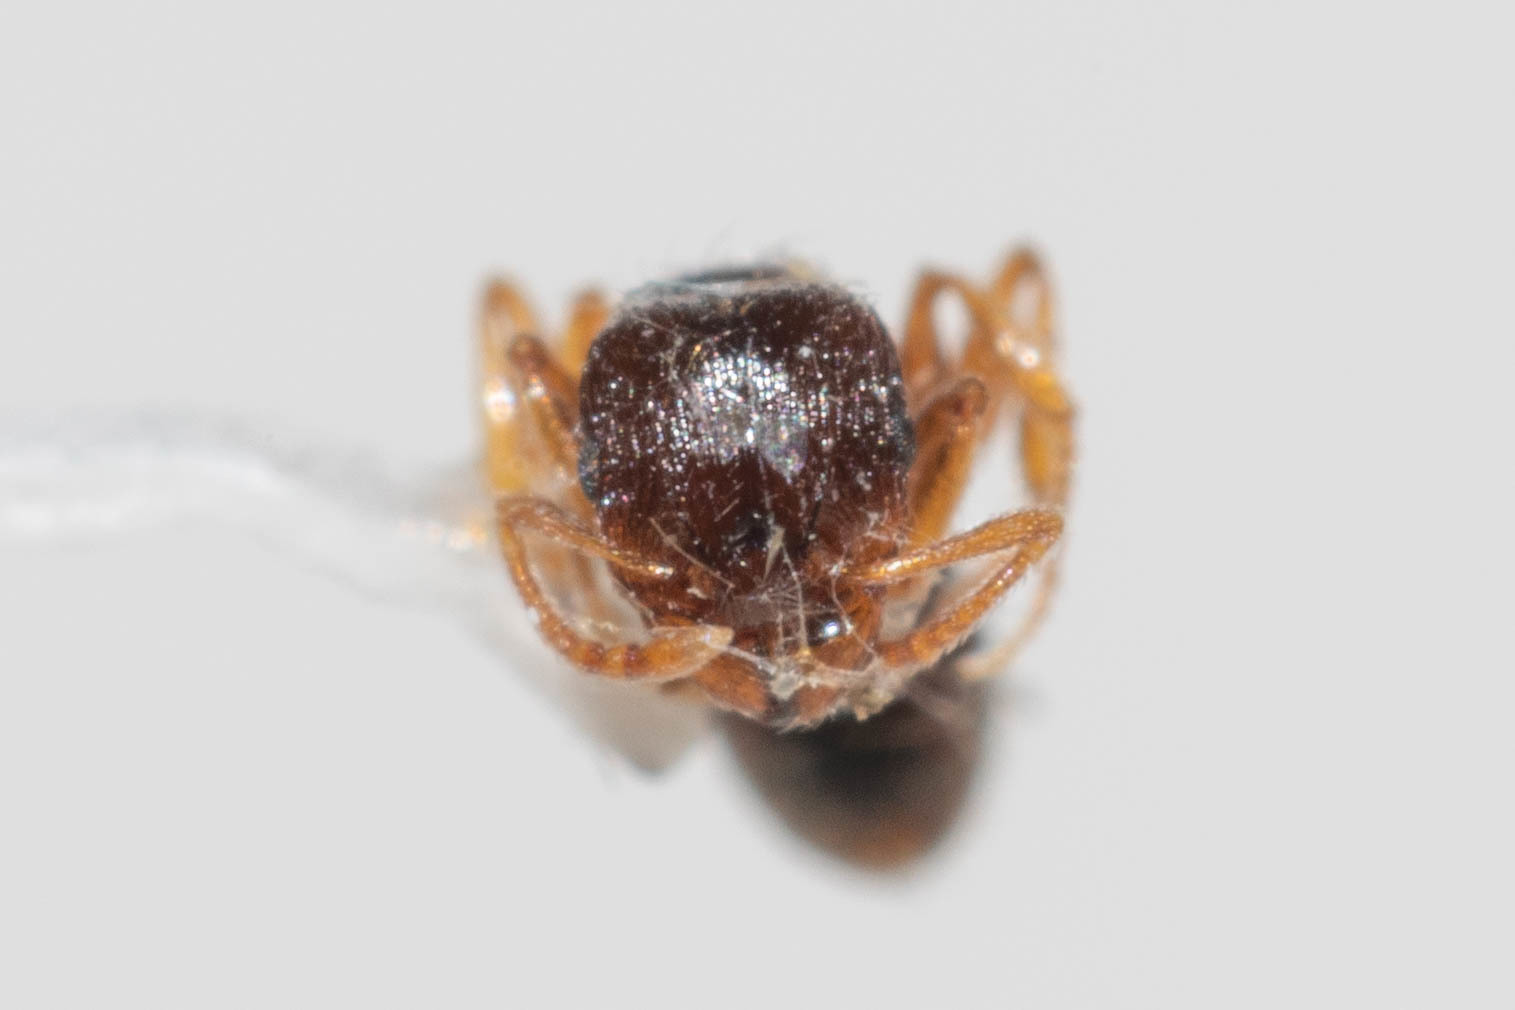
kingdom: Animalia
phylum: Arthropoda
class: Insecta
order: Hymenoptera
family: Formicidae
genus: Tetramorium
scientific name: Tetramorium immigrans
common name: Pavement ant
